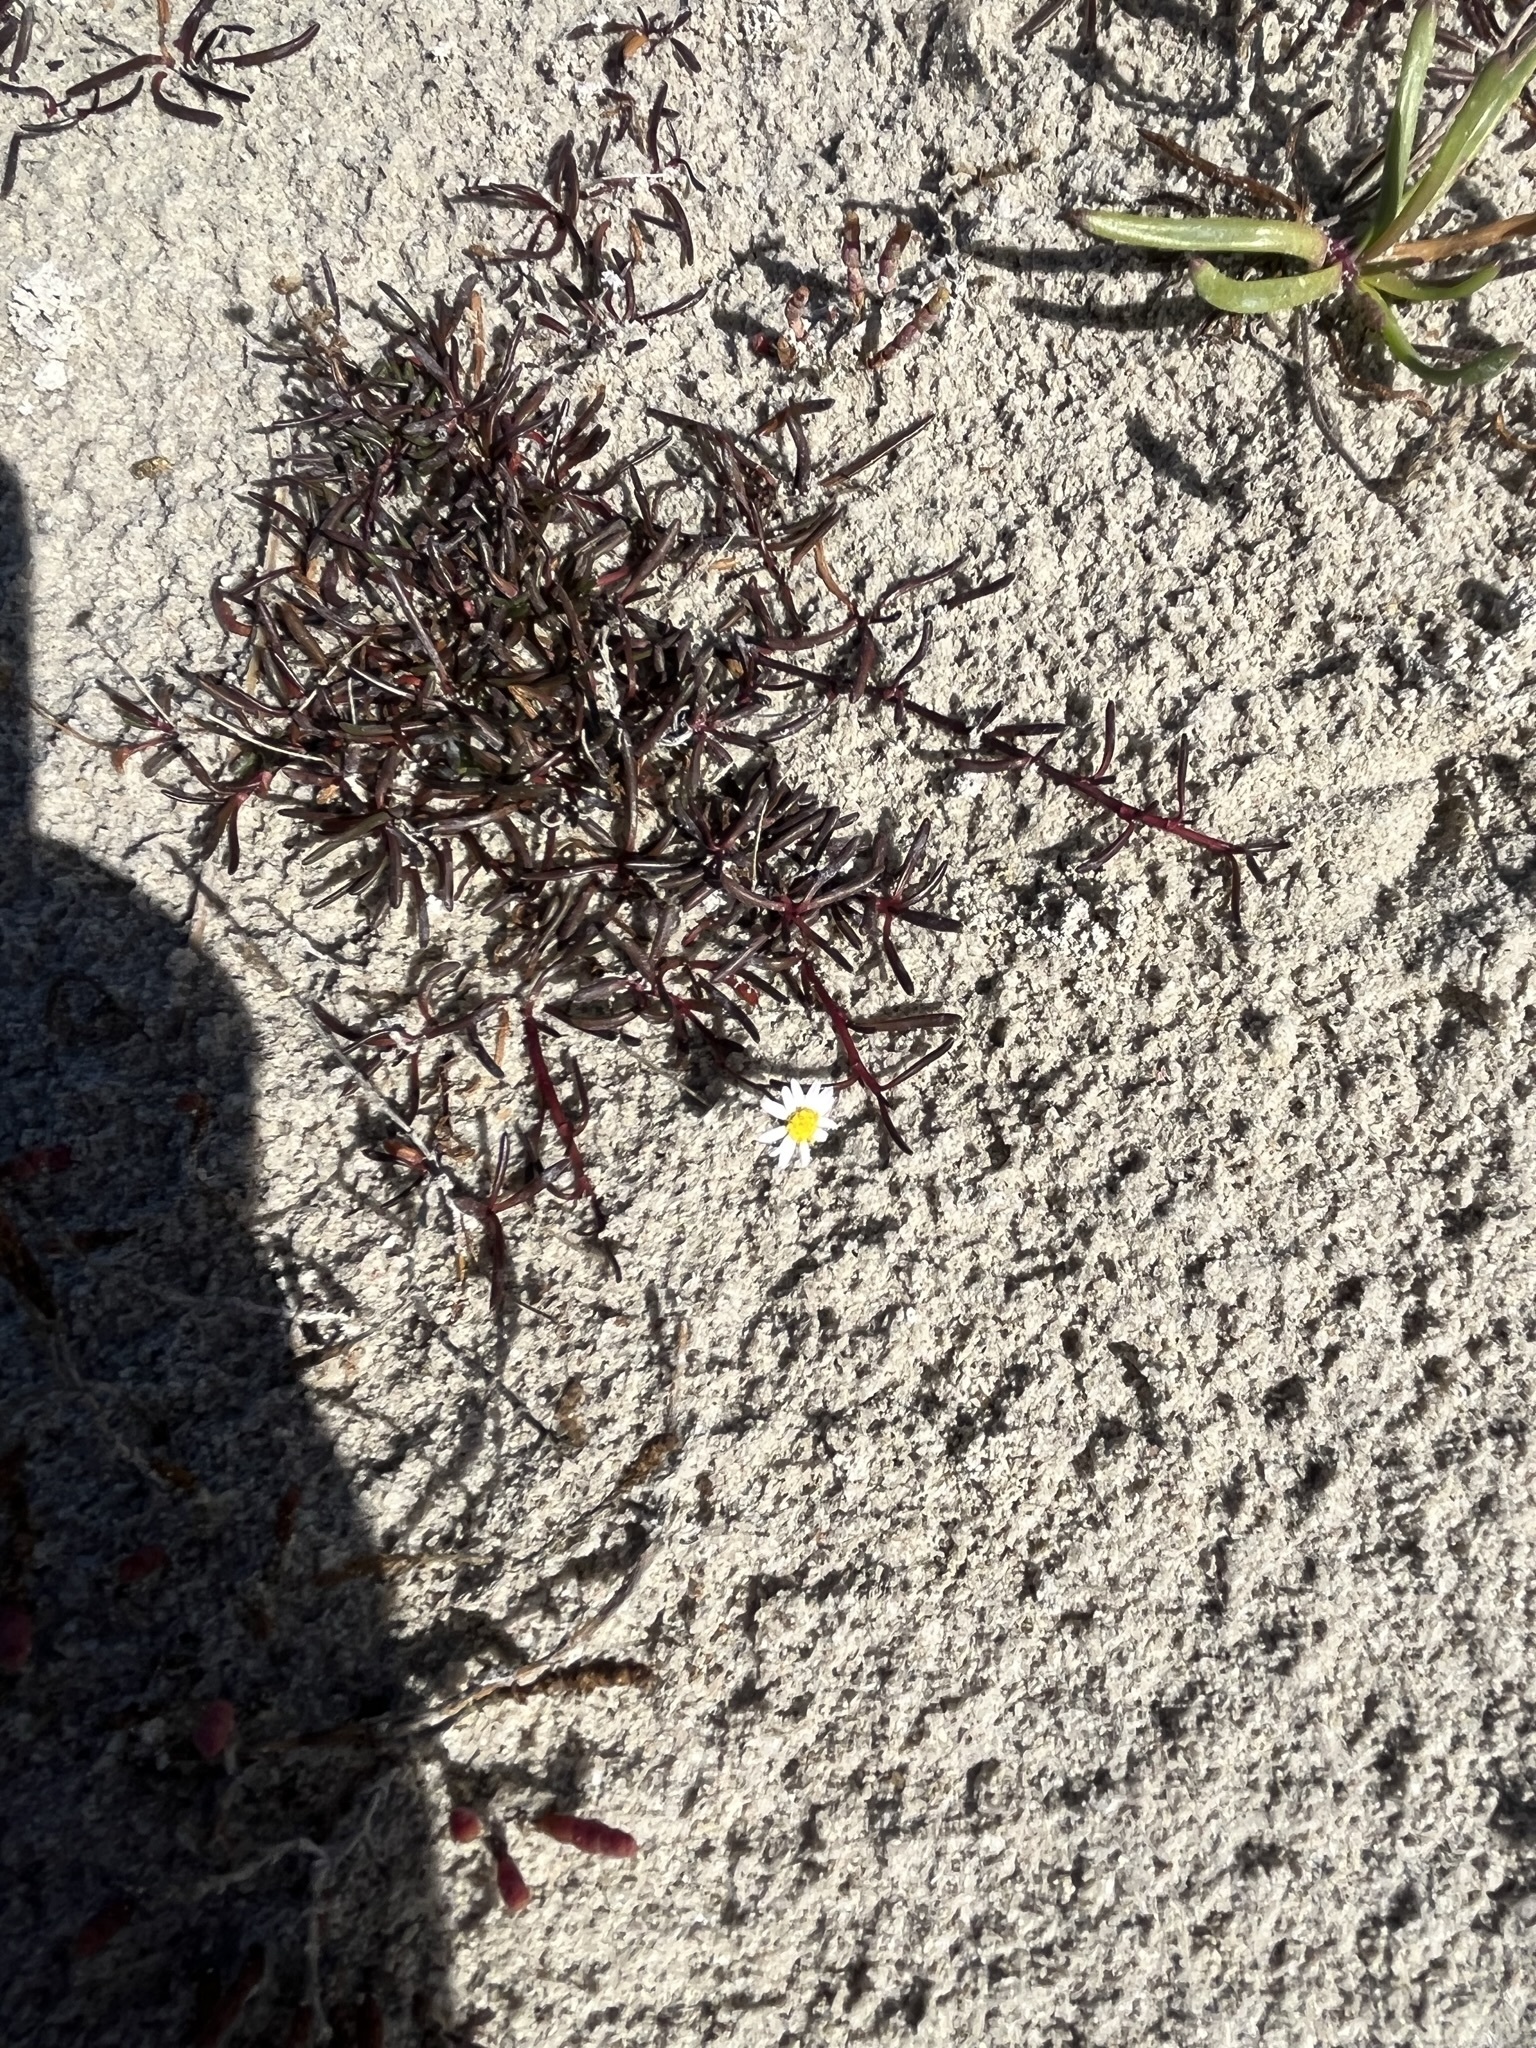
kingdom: Plantae
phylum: Tracheophyta
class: Magnoliopsida
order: Asterales
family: Asteraceae
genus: Poecilolepis
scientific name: Poecilolepis maritima
